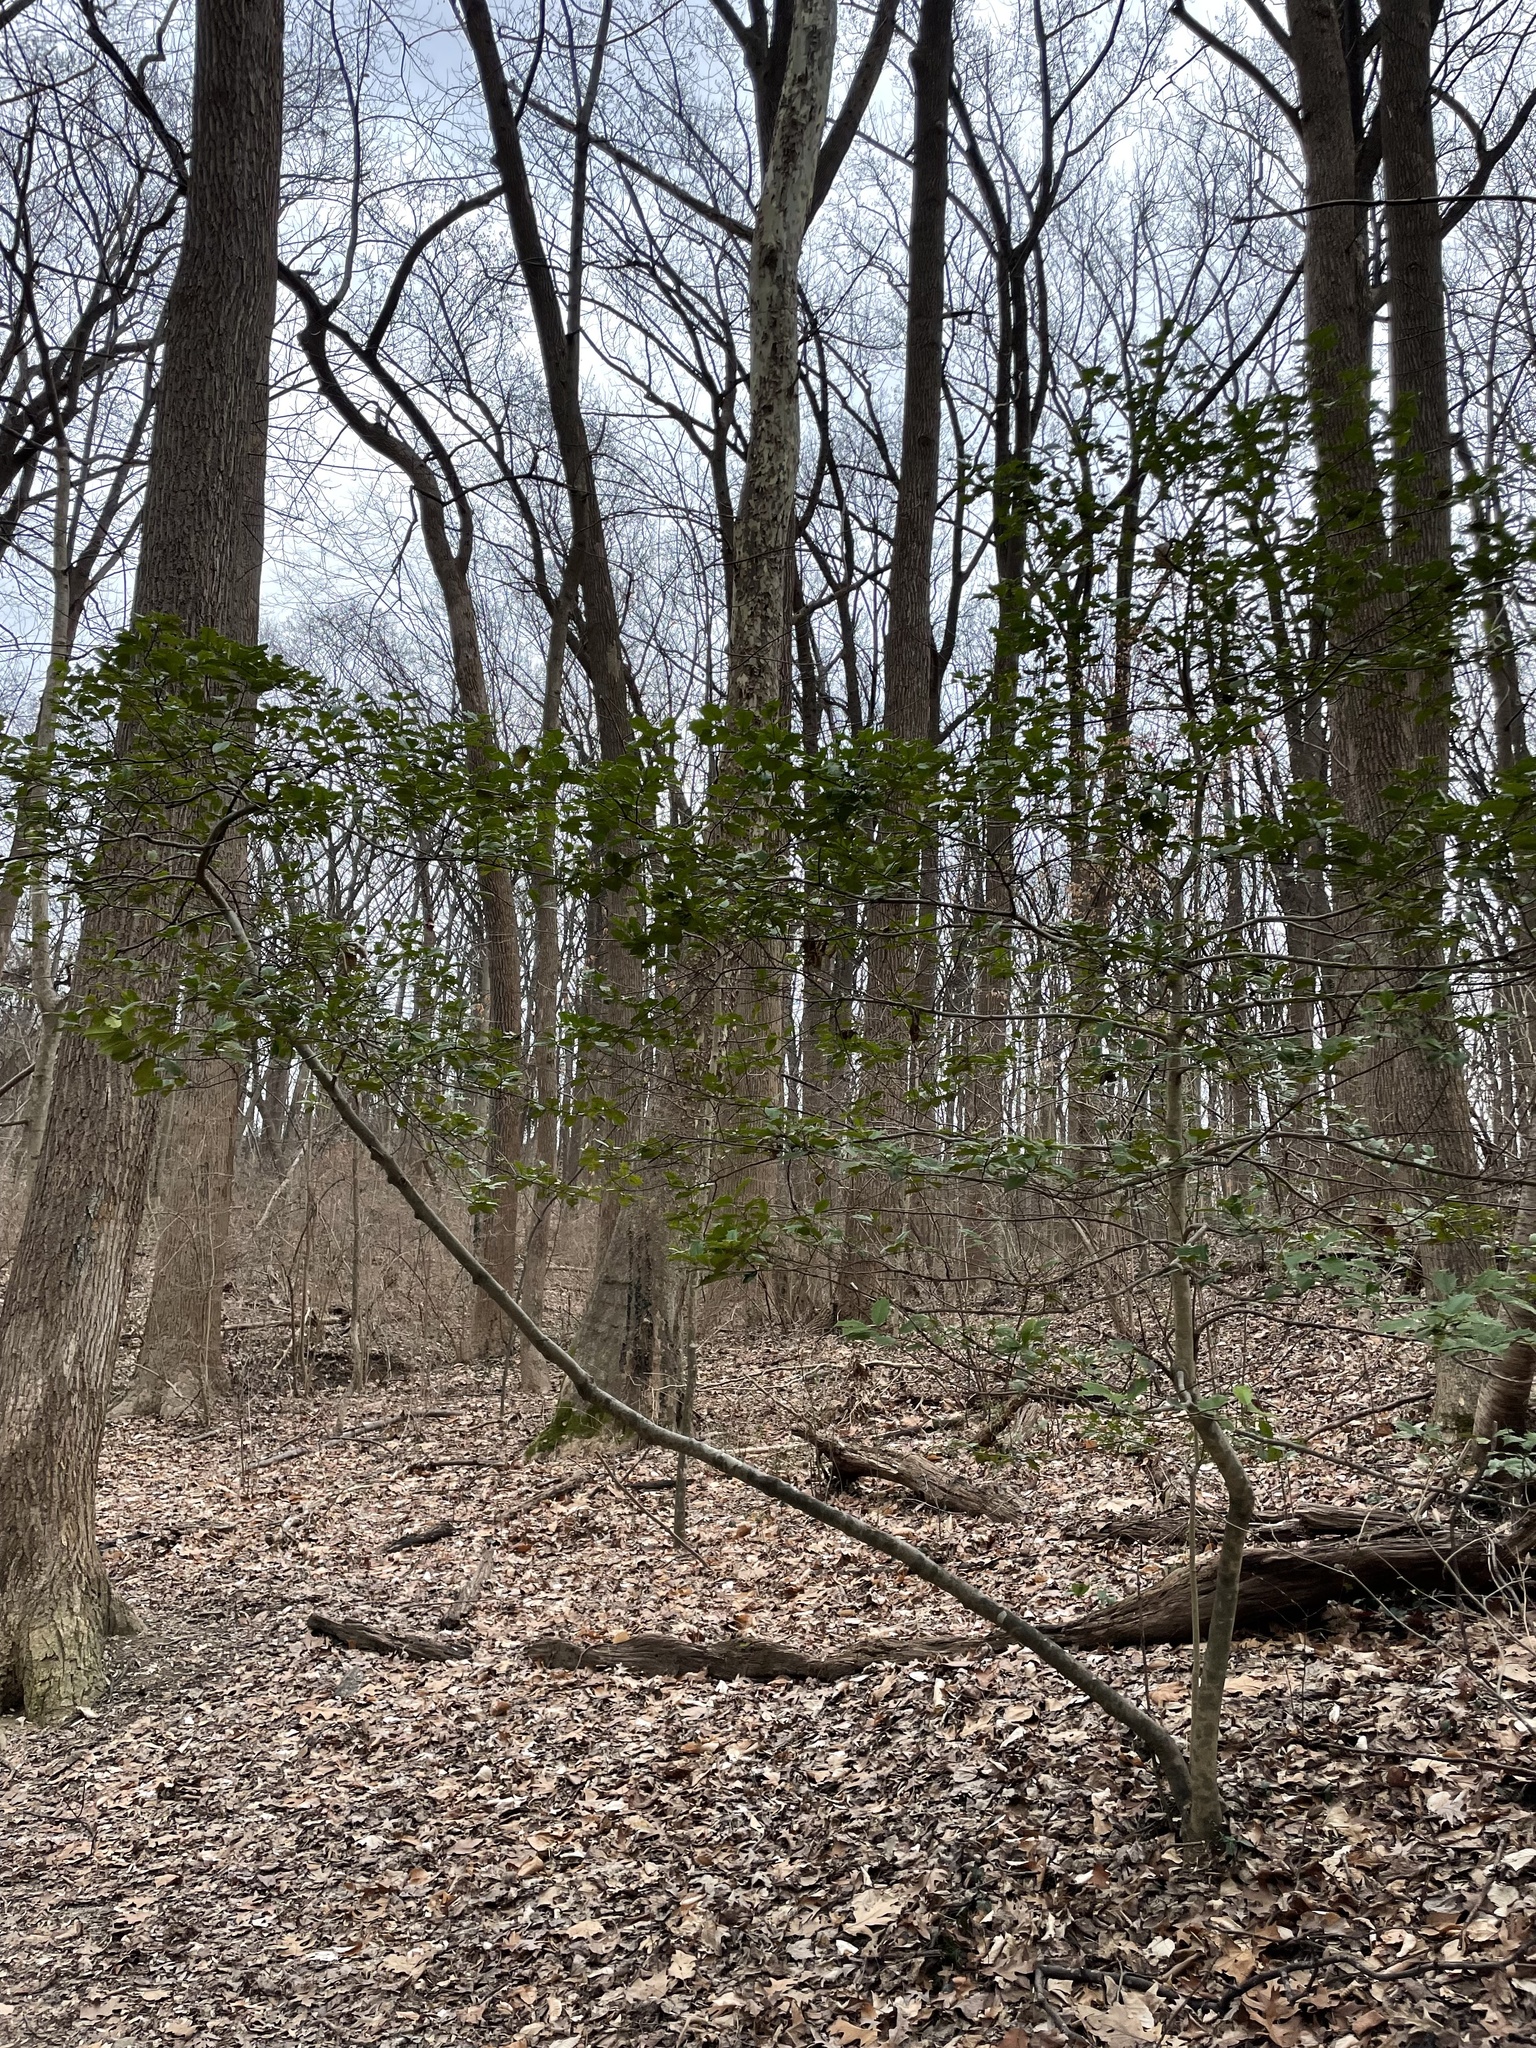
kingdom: Plantae
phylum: Tracheophyta
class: Magnoliopsida
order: Aquifoliales
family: Aquifoliaceae
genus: Ilex
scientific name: Ilex opaca
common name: American holly
